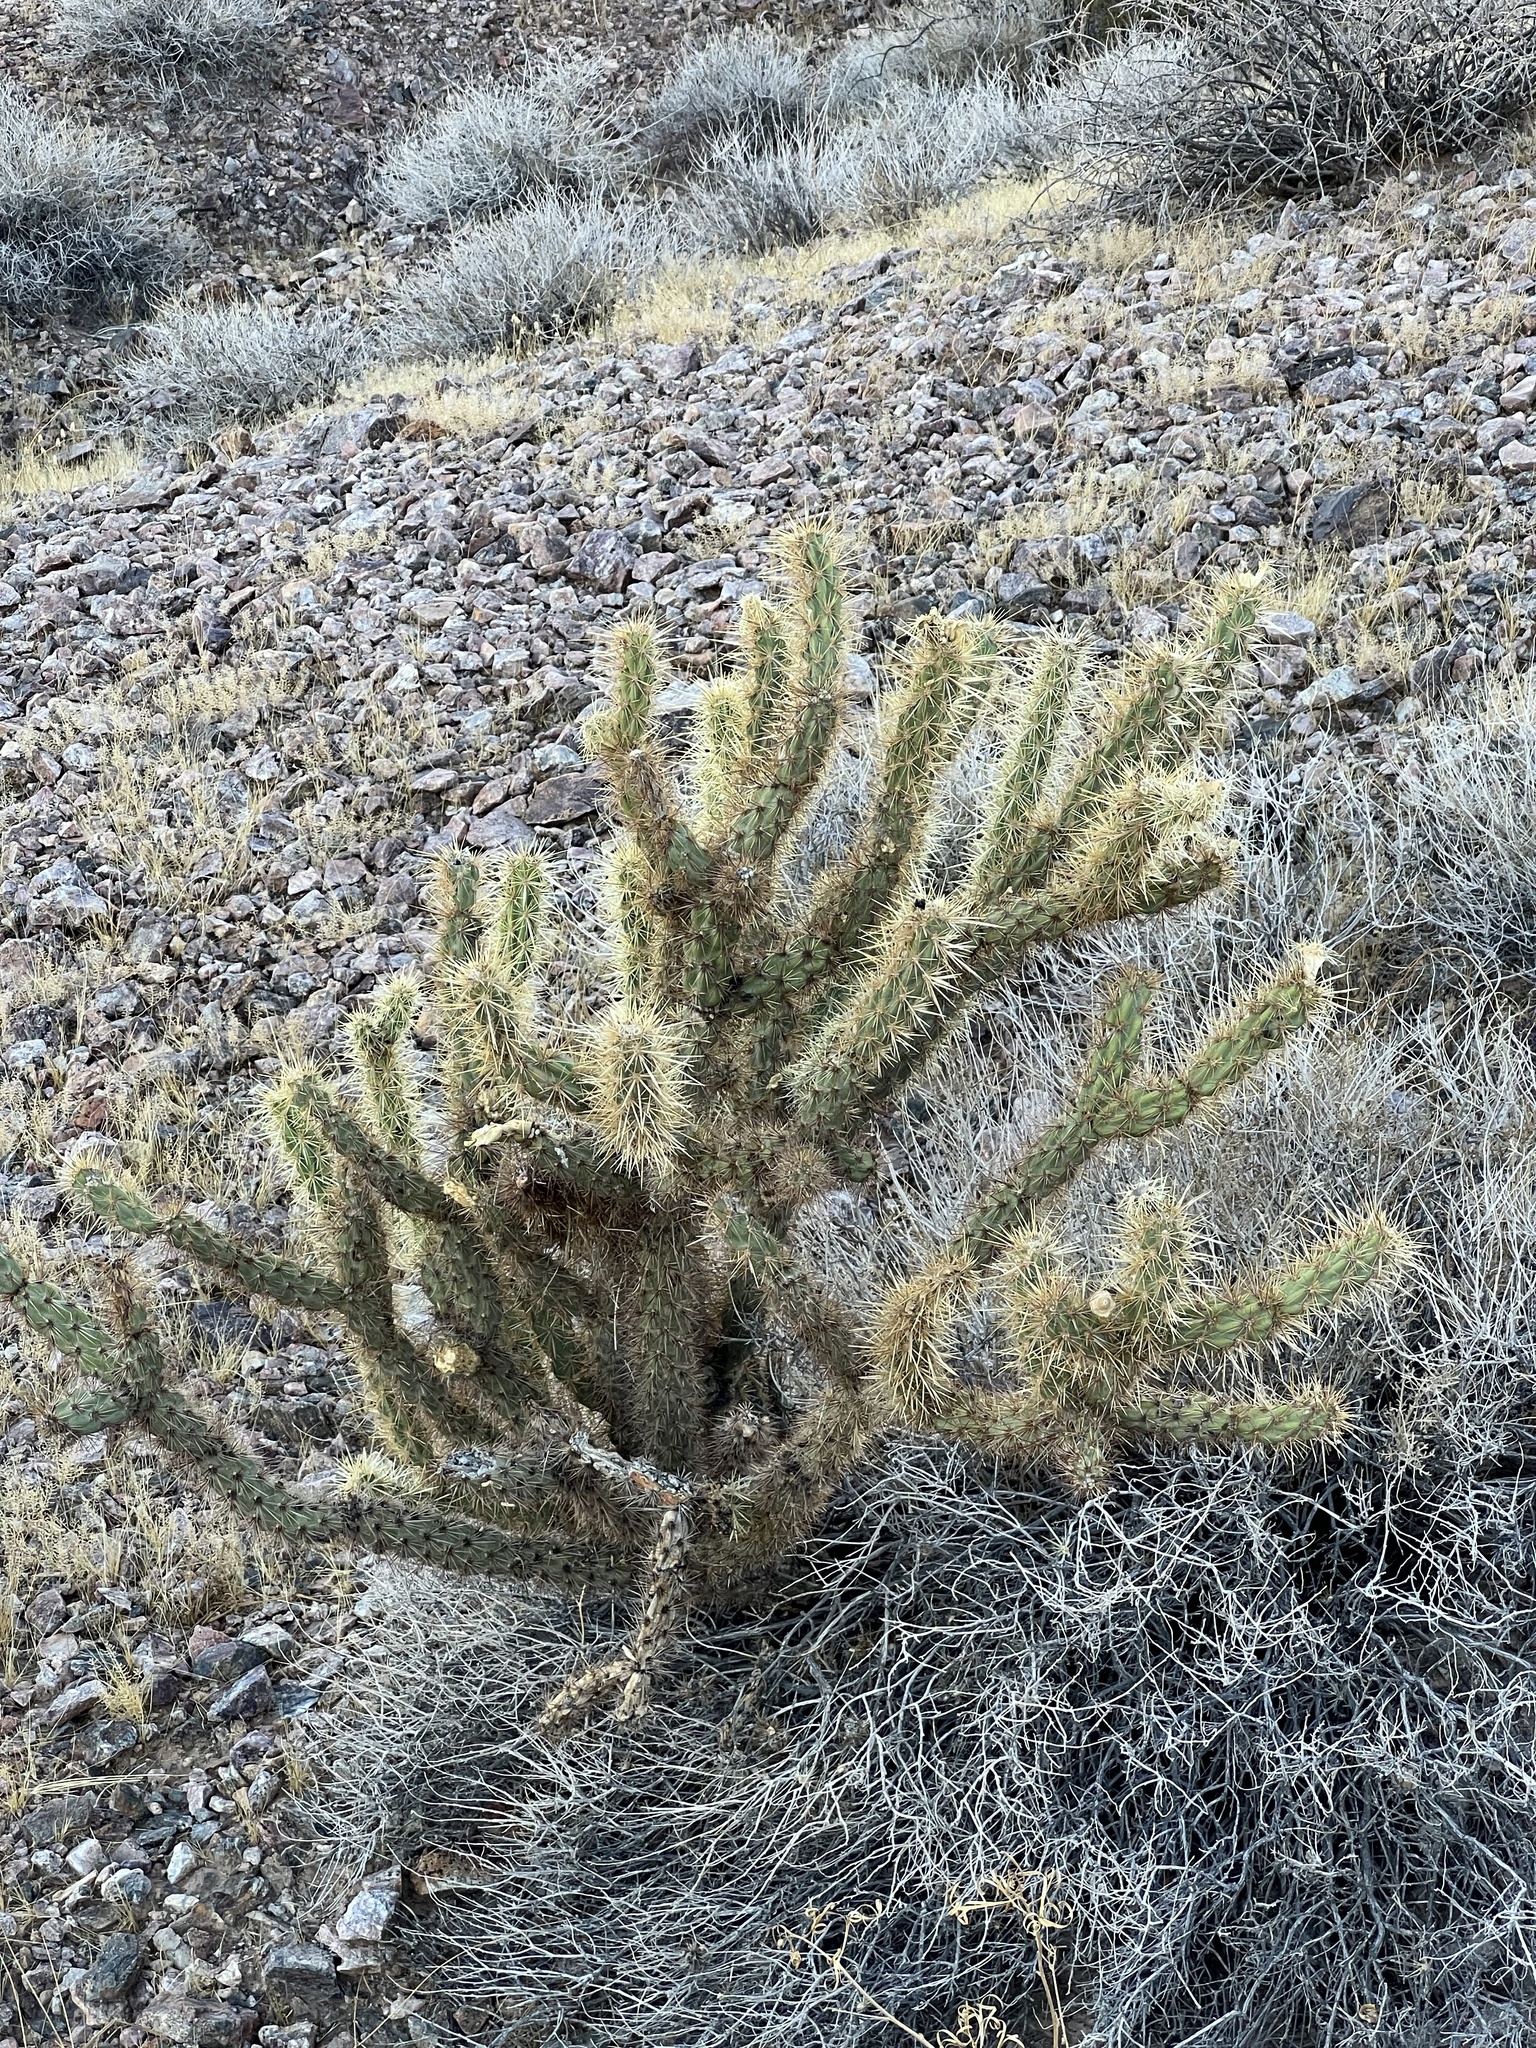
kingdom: Plantae
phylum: Tracheophyta
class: Magnoliopsida
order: Caryophyllales
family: Cactaceae
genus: Cylindropuntia
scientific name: Cylindropuntia acanthocarpa
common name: Buckhorn cholla
